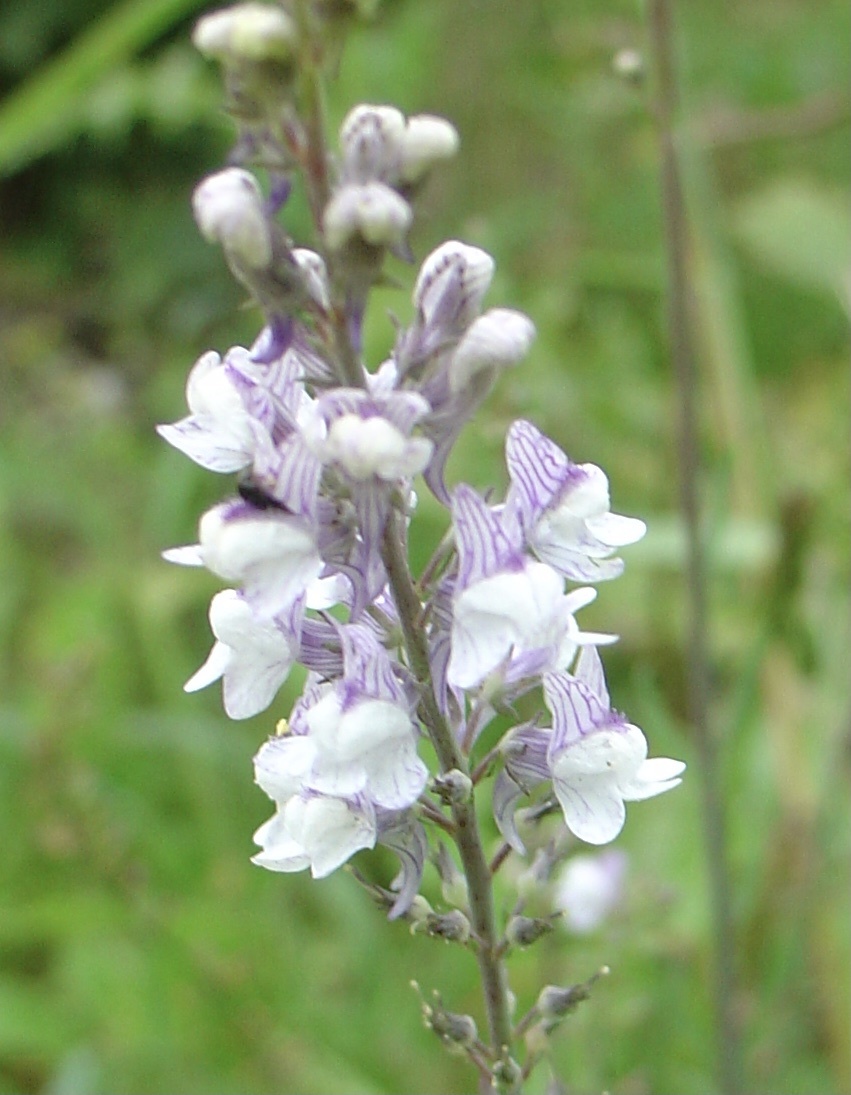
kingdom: Plantae
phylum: Tracheophyta
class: Magnoliopsida
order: Lamiales
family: Plantaginaceae
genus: Linaria
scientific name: Linaria repens
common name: Pale toadflax
